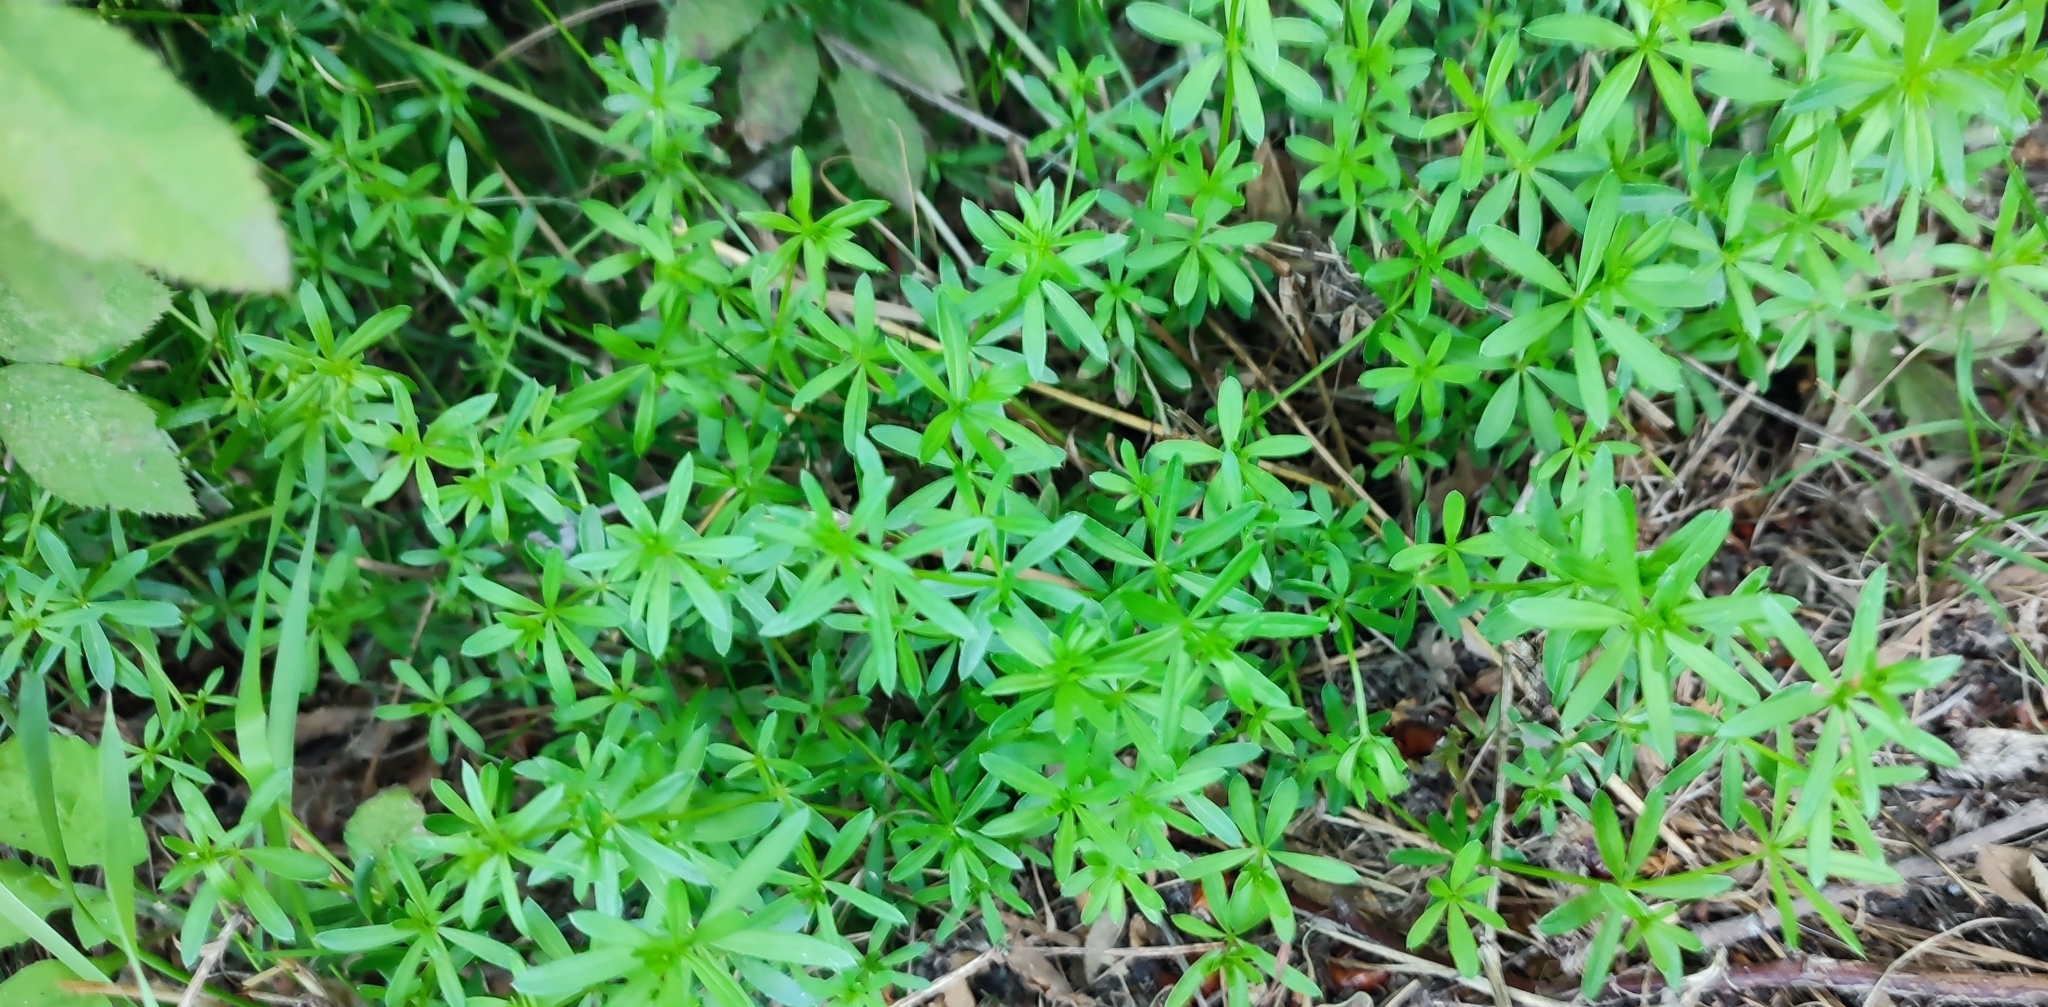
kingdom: Plantae
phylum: Tracheophyta
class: Magnoliopsida
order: Gentianales
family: Rubiaceae
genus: Galium
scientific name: Galium mollugo
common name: Hedge bedstraw
